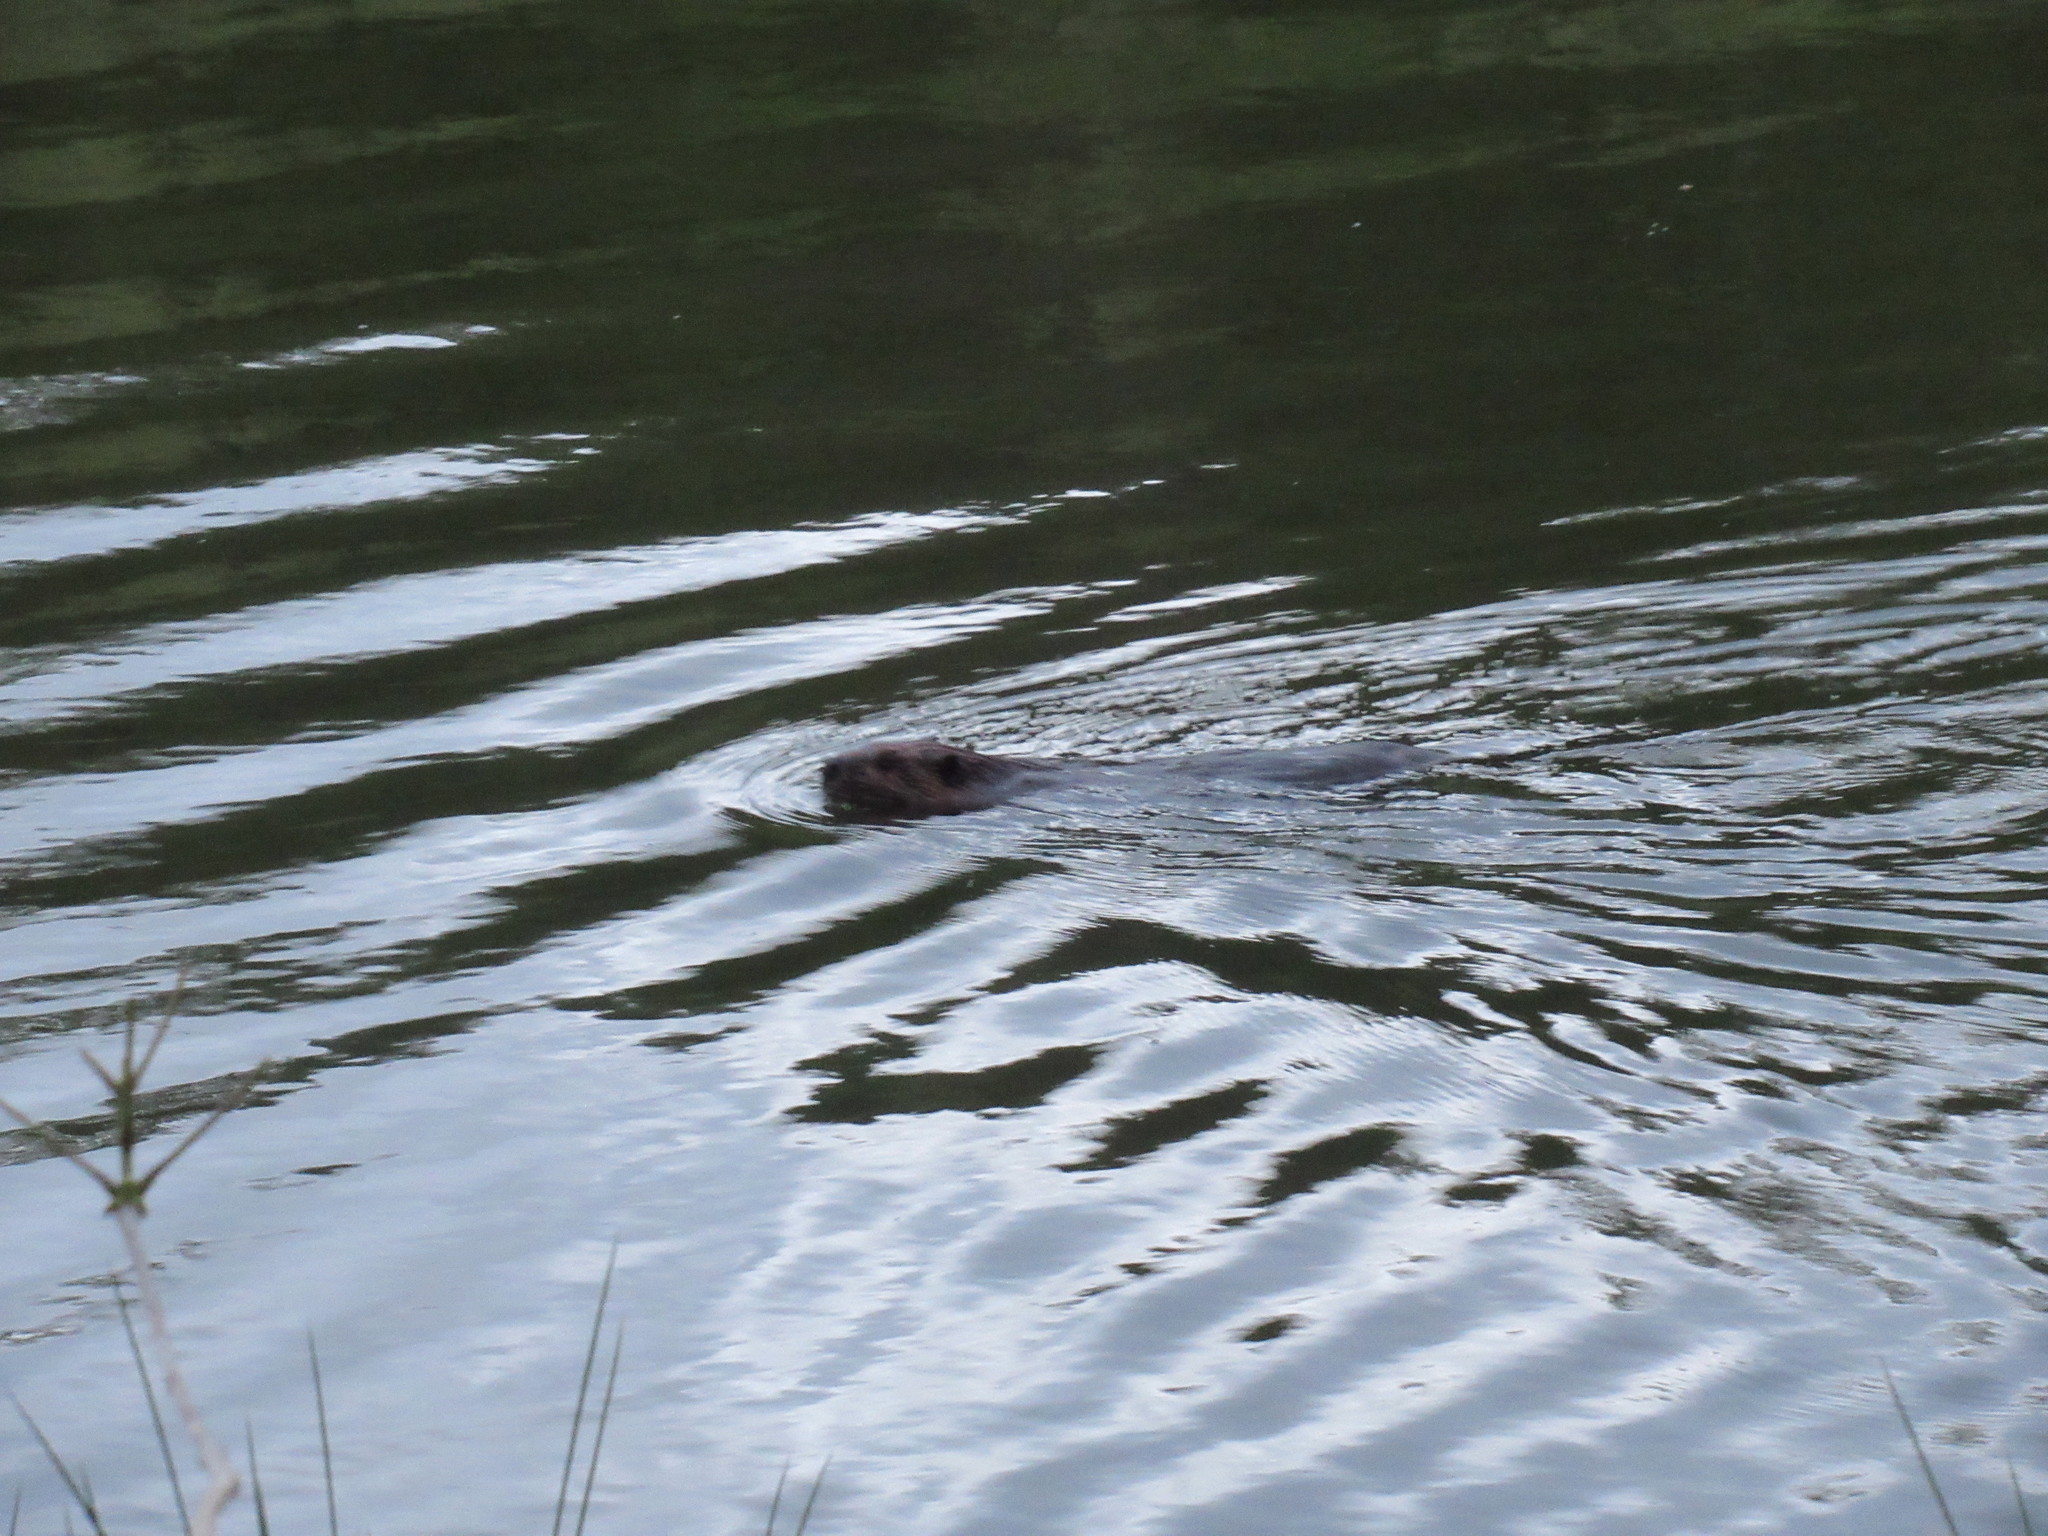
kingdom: Animalia
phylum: Chordata
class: Mammalia
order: Rodentia
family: Castoridae
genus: Castor
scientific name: Castor canadensis
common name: American beaver
